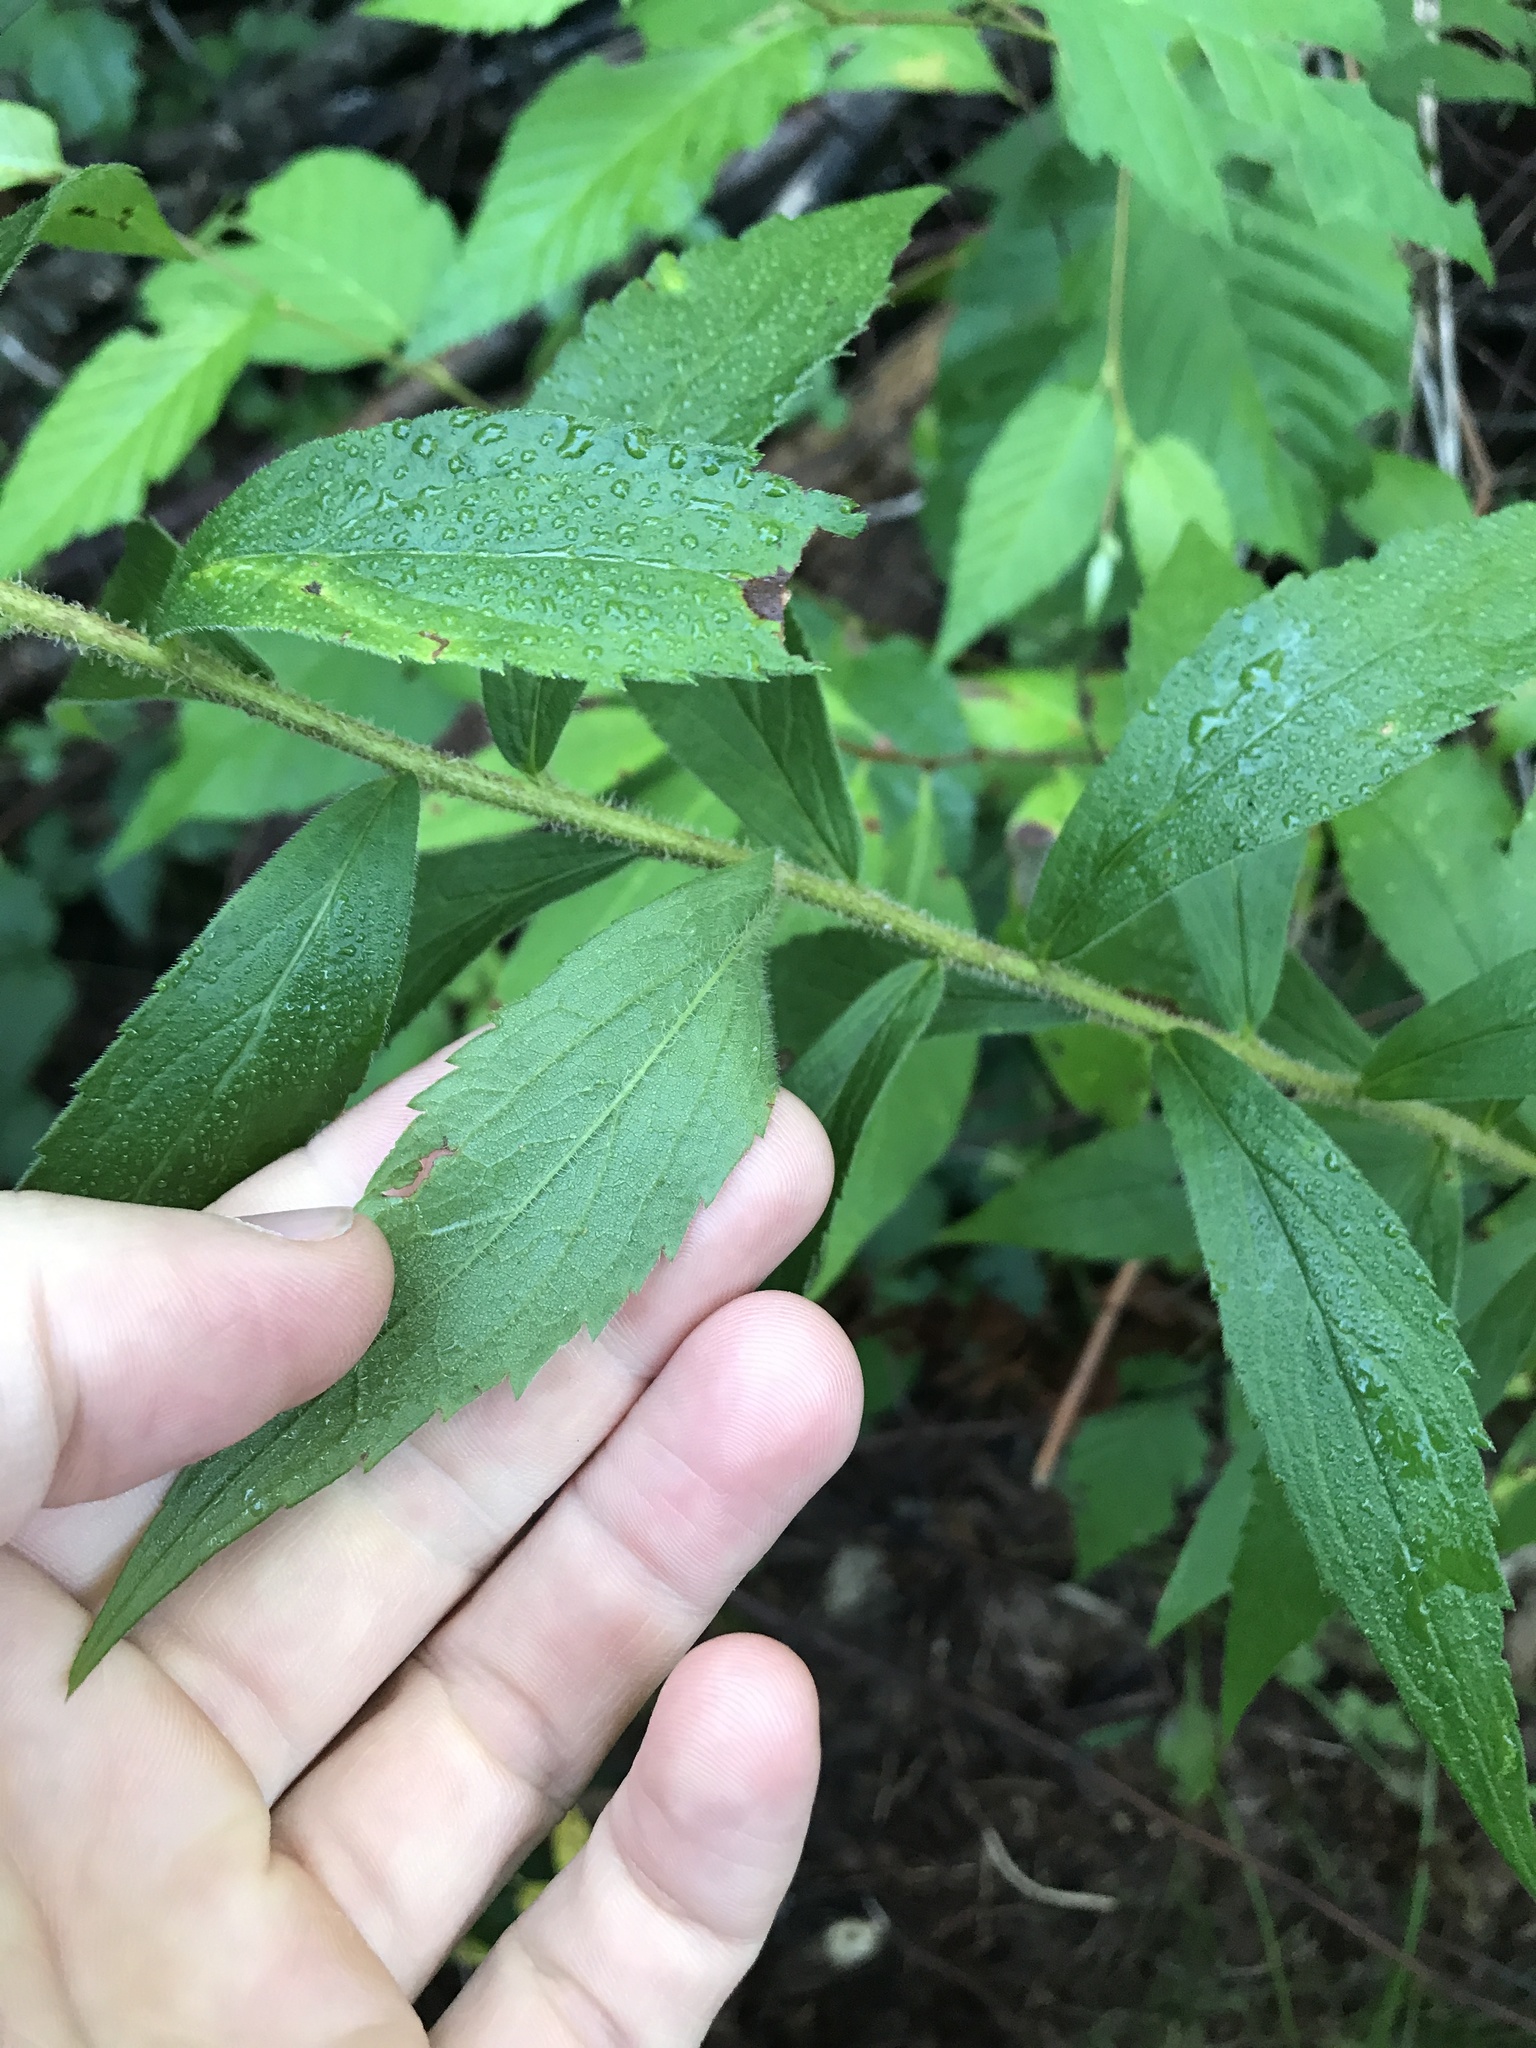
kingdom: Plantae
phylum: Tracheophyta
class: Magnoliopsida
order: Asterales
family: Asteraceae
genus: Solidago
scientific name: Solidago rugosa
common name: Rough-stemmed goldenrod
